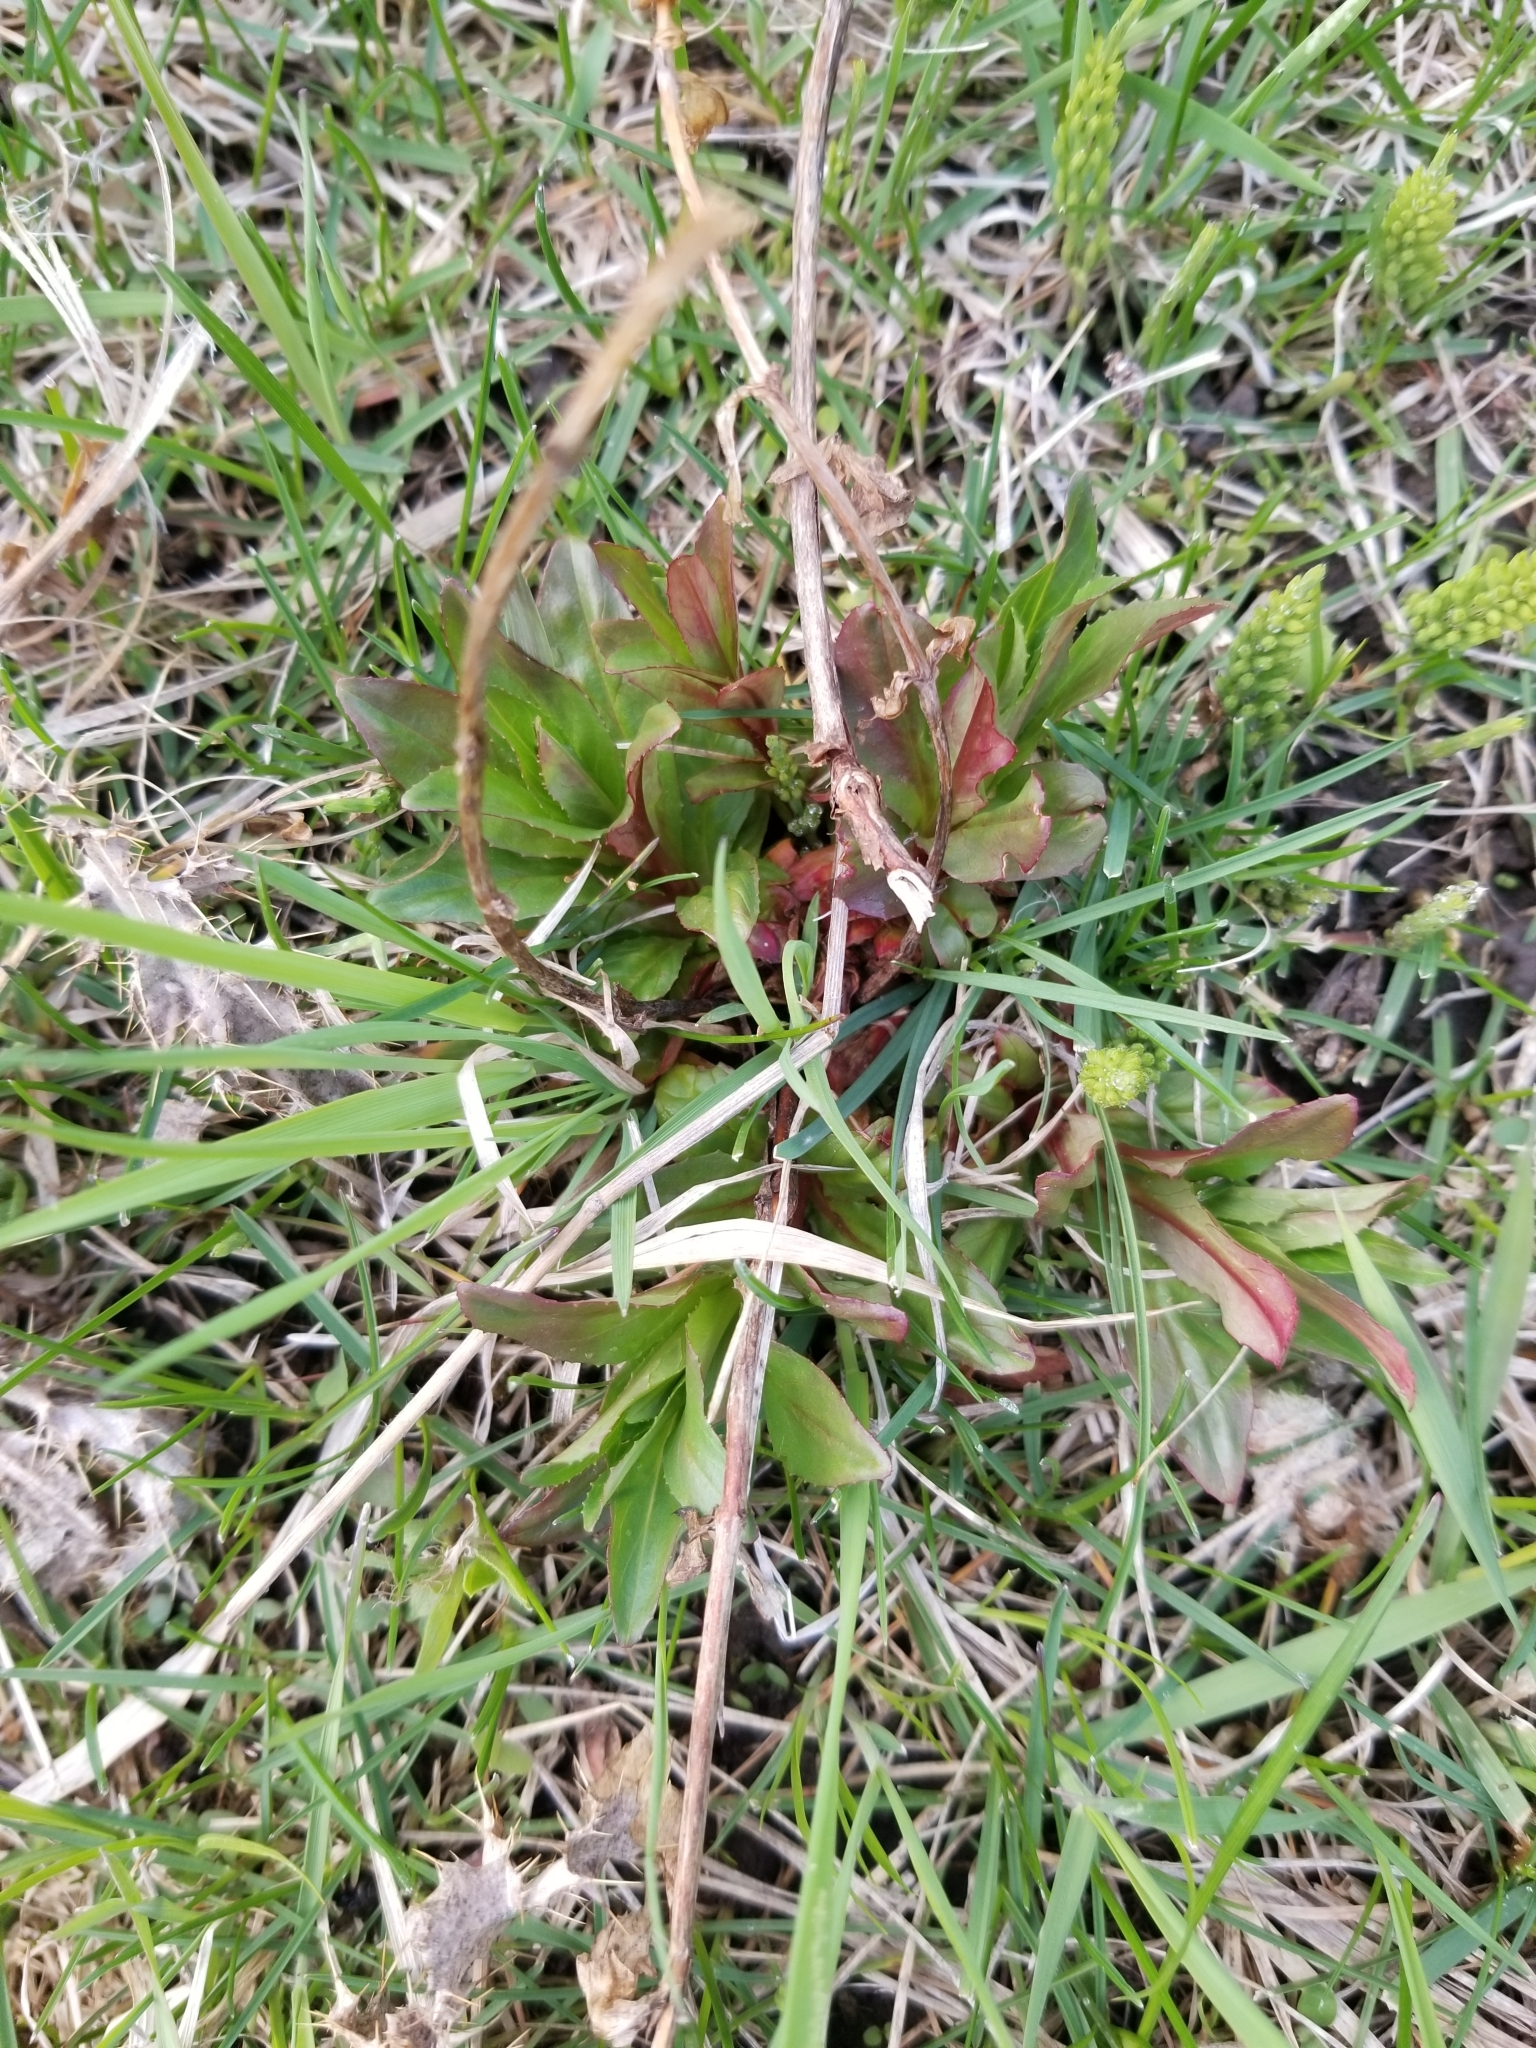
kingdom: Plantae
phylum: Tracheophyta
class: Magnoliopsida
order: Myrtales
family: Onagraceae
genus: Epilobium
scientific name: Epilobium ciliatum
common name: American willowherb
